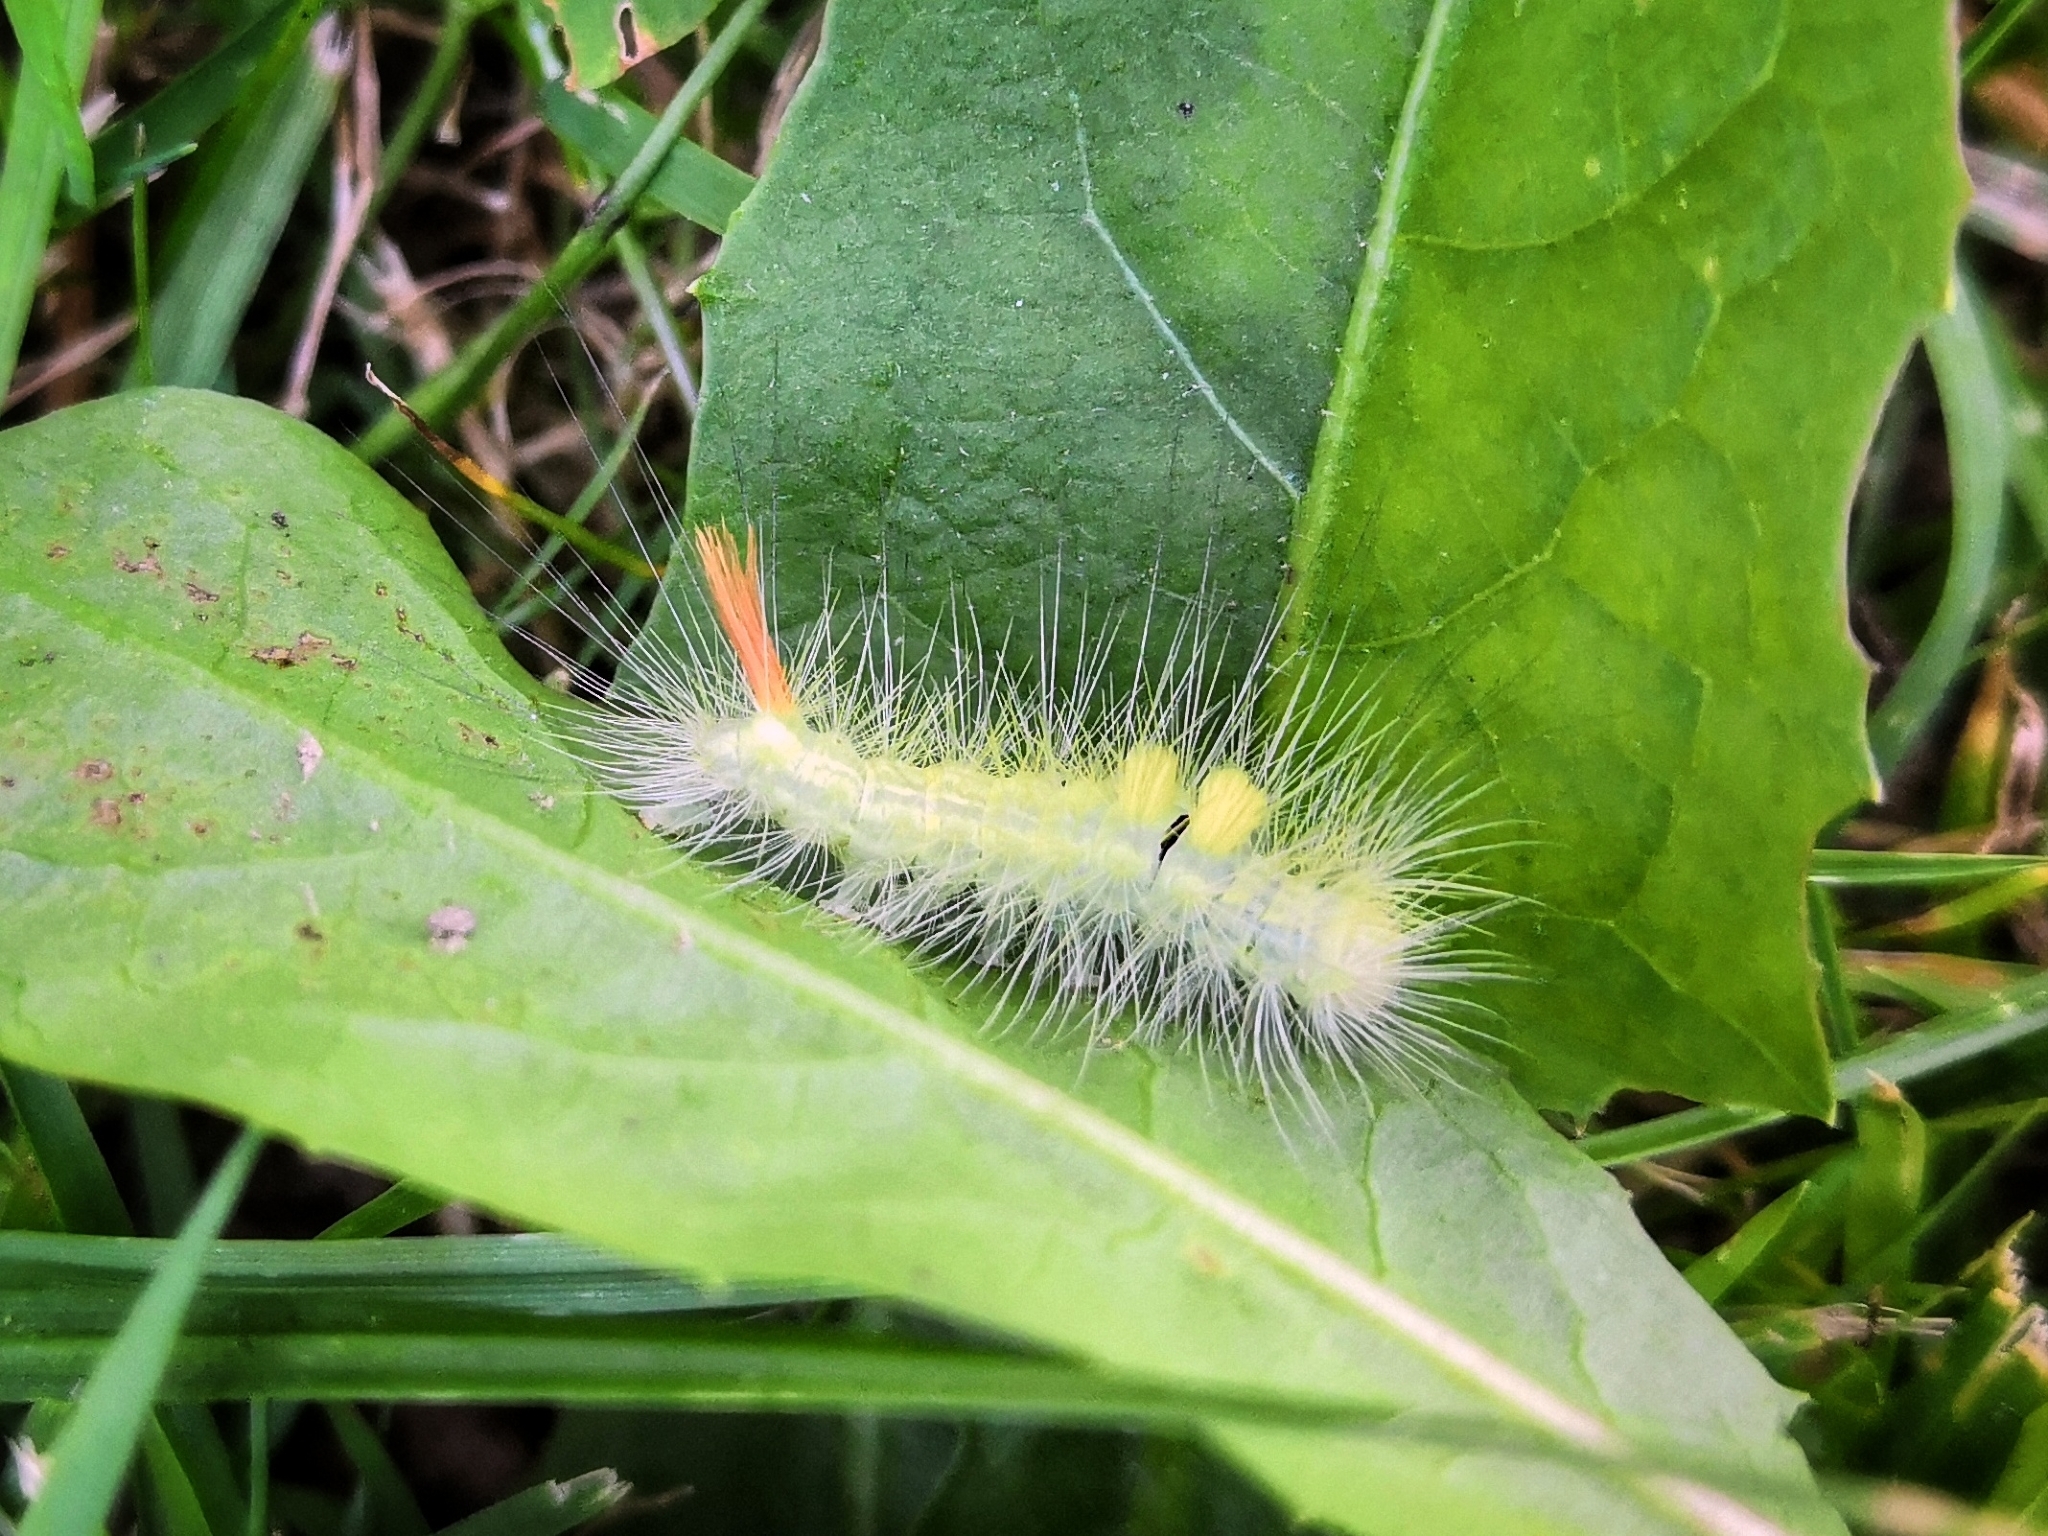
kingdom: Animalia
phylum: Arthropoda
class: Insecta
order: Lepidoptera
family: Erebidae
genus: Calliteara
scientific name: Calliteara pudibunda
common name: Pale tussock
